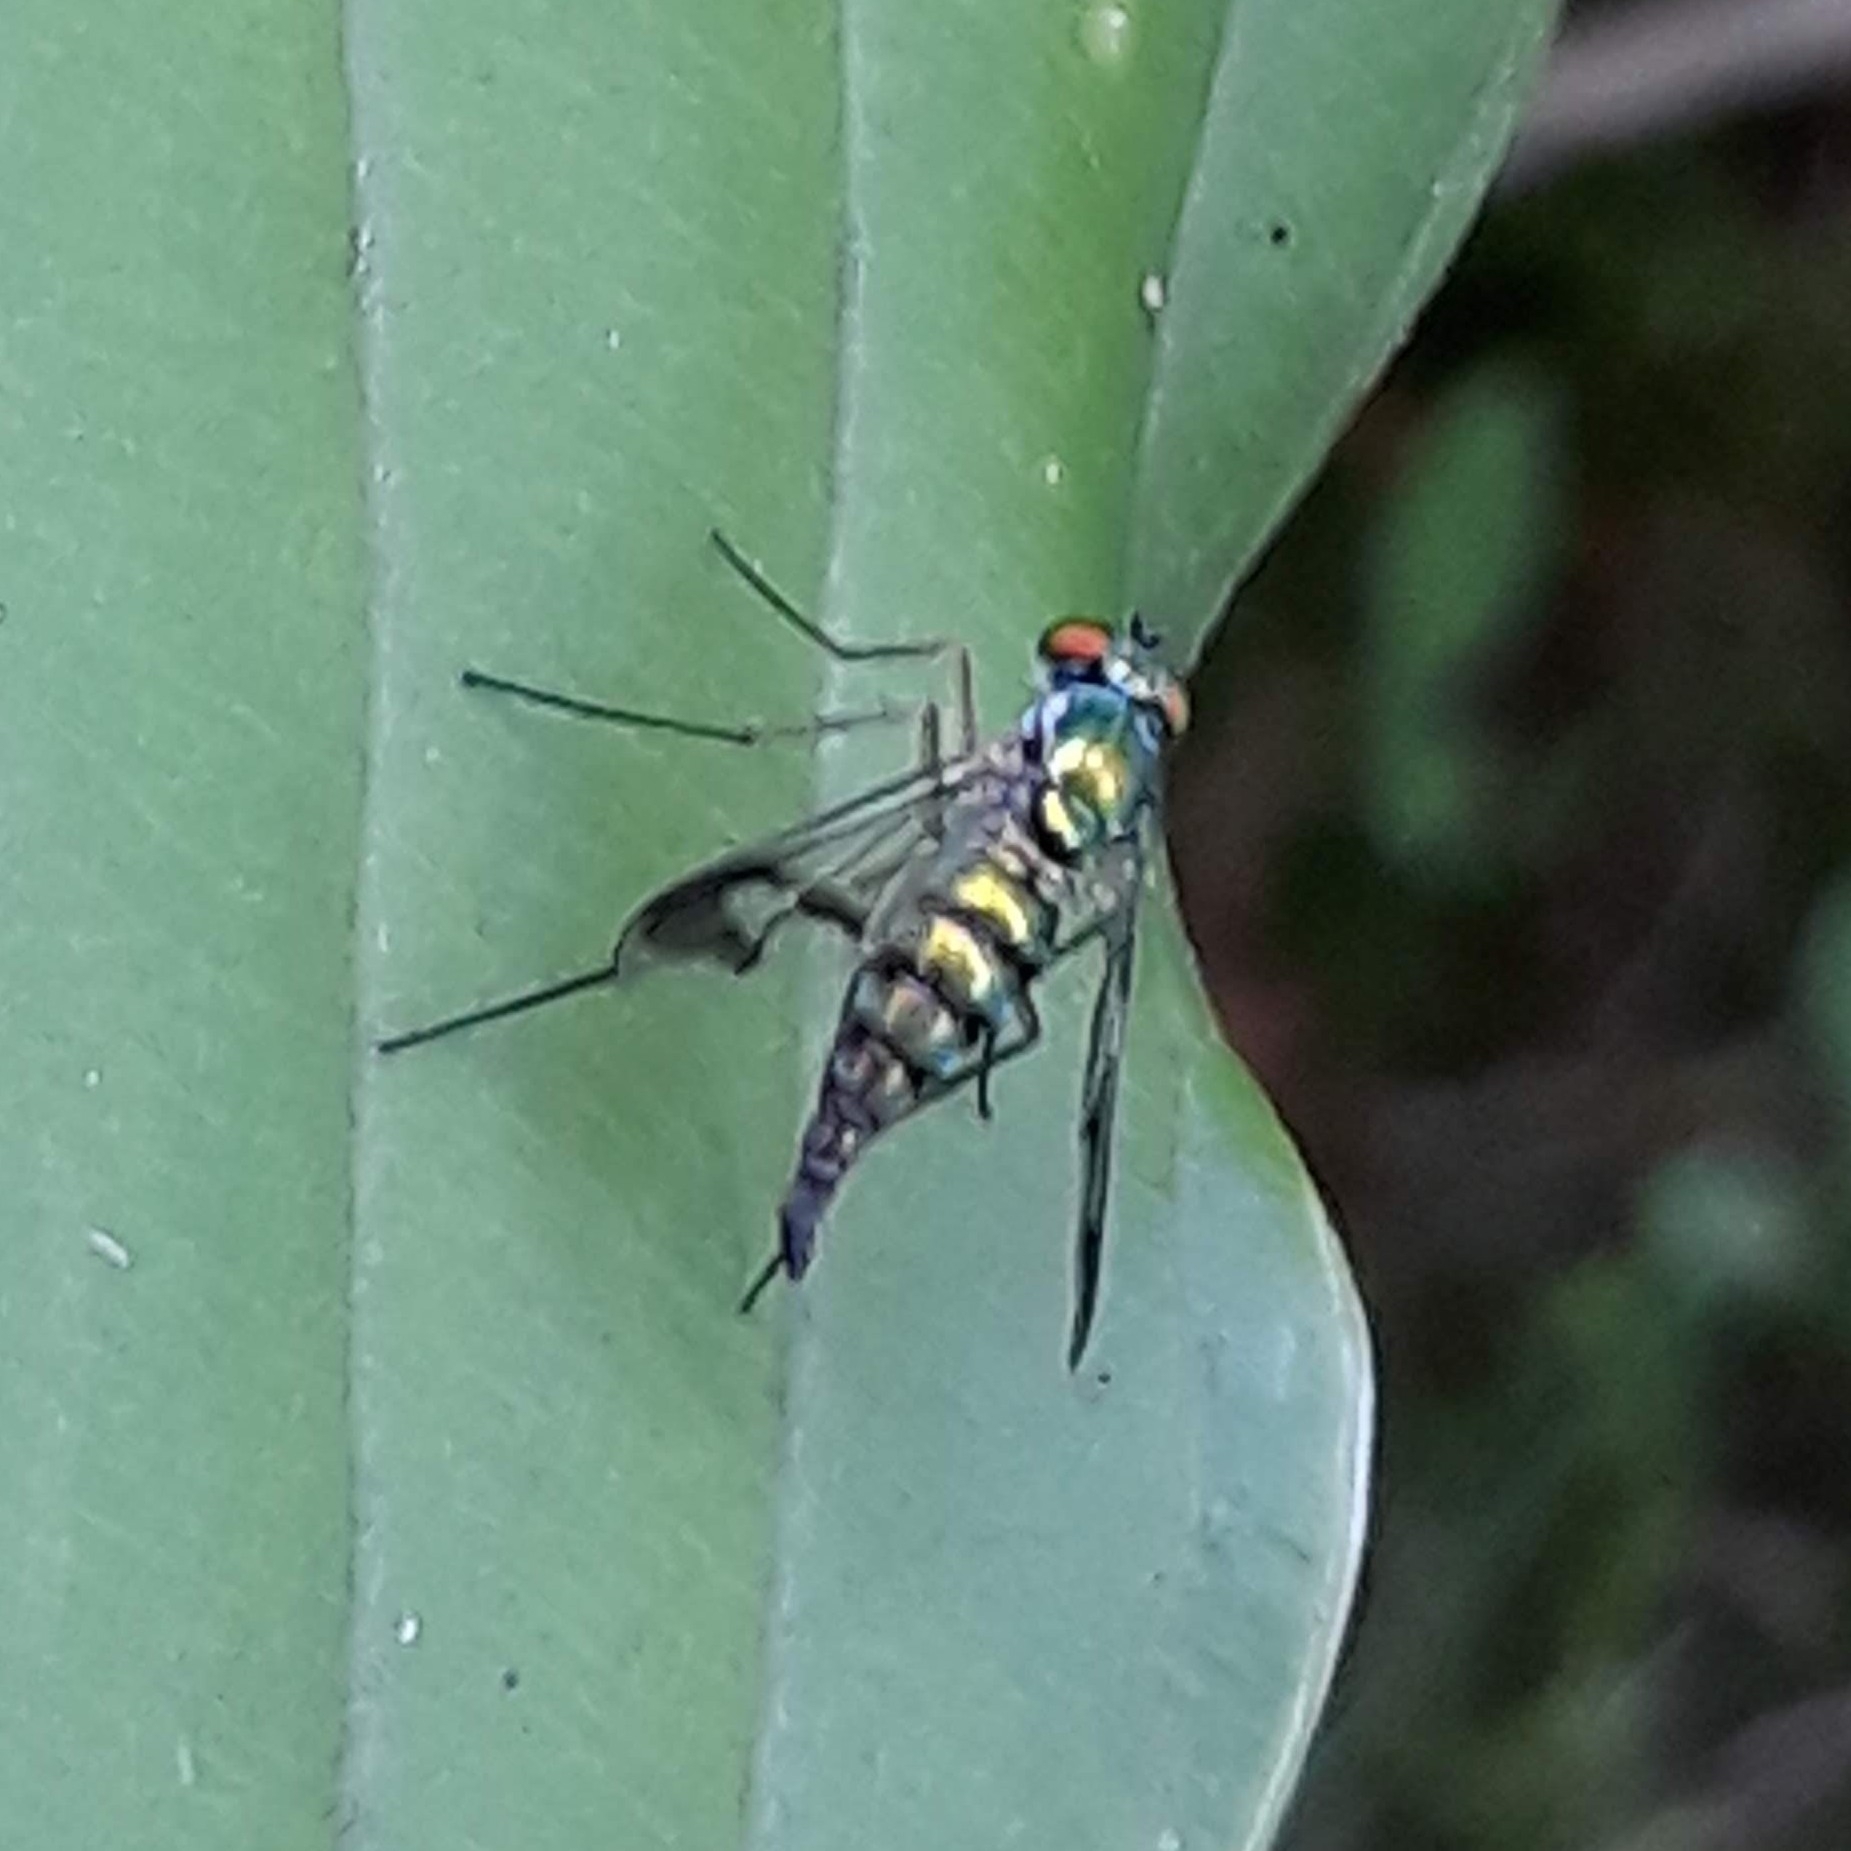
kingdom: Animalia
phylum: Arthropoda
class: Insecta
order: Diptera
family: Dolichopodidae
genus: Condylostylus
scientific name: Condylostylus
